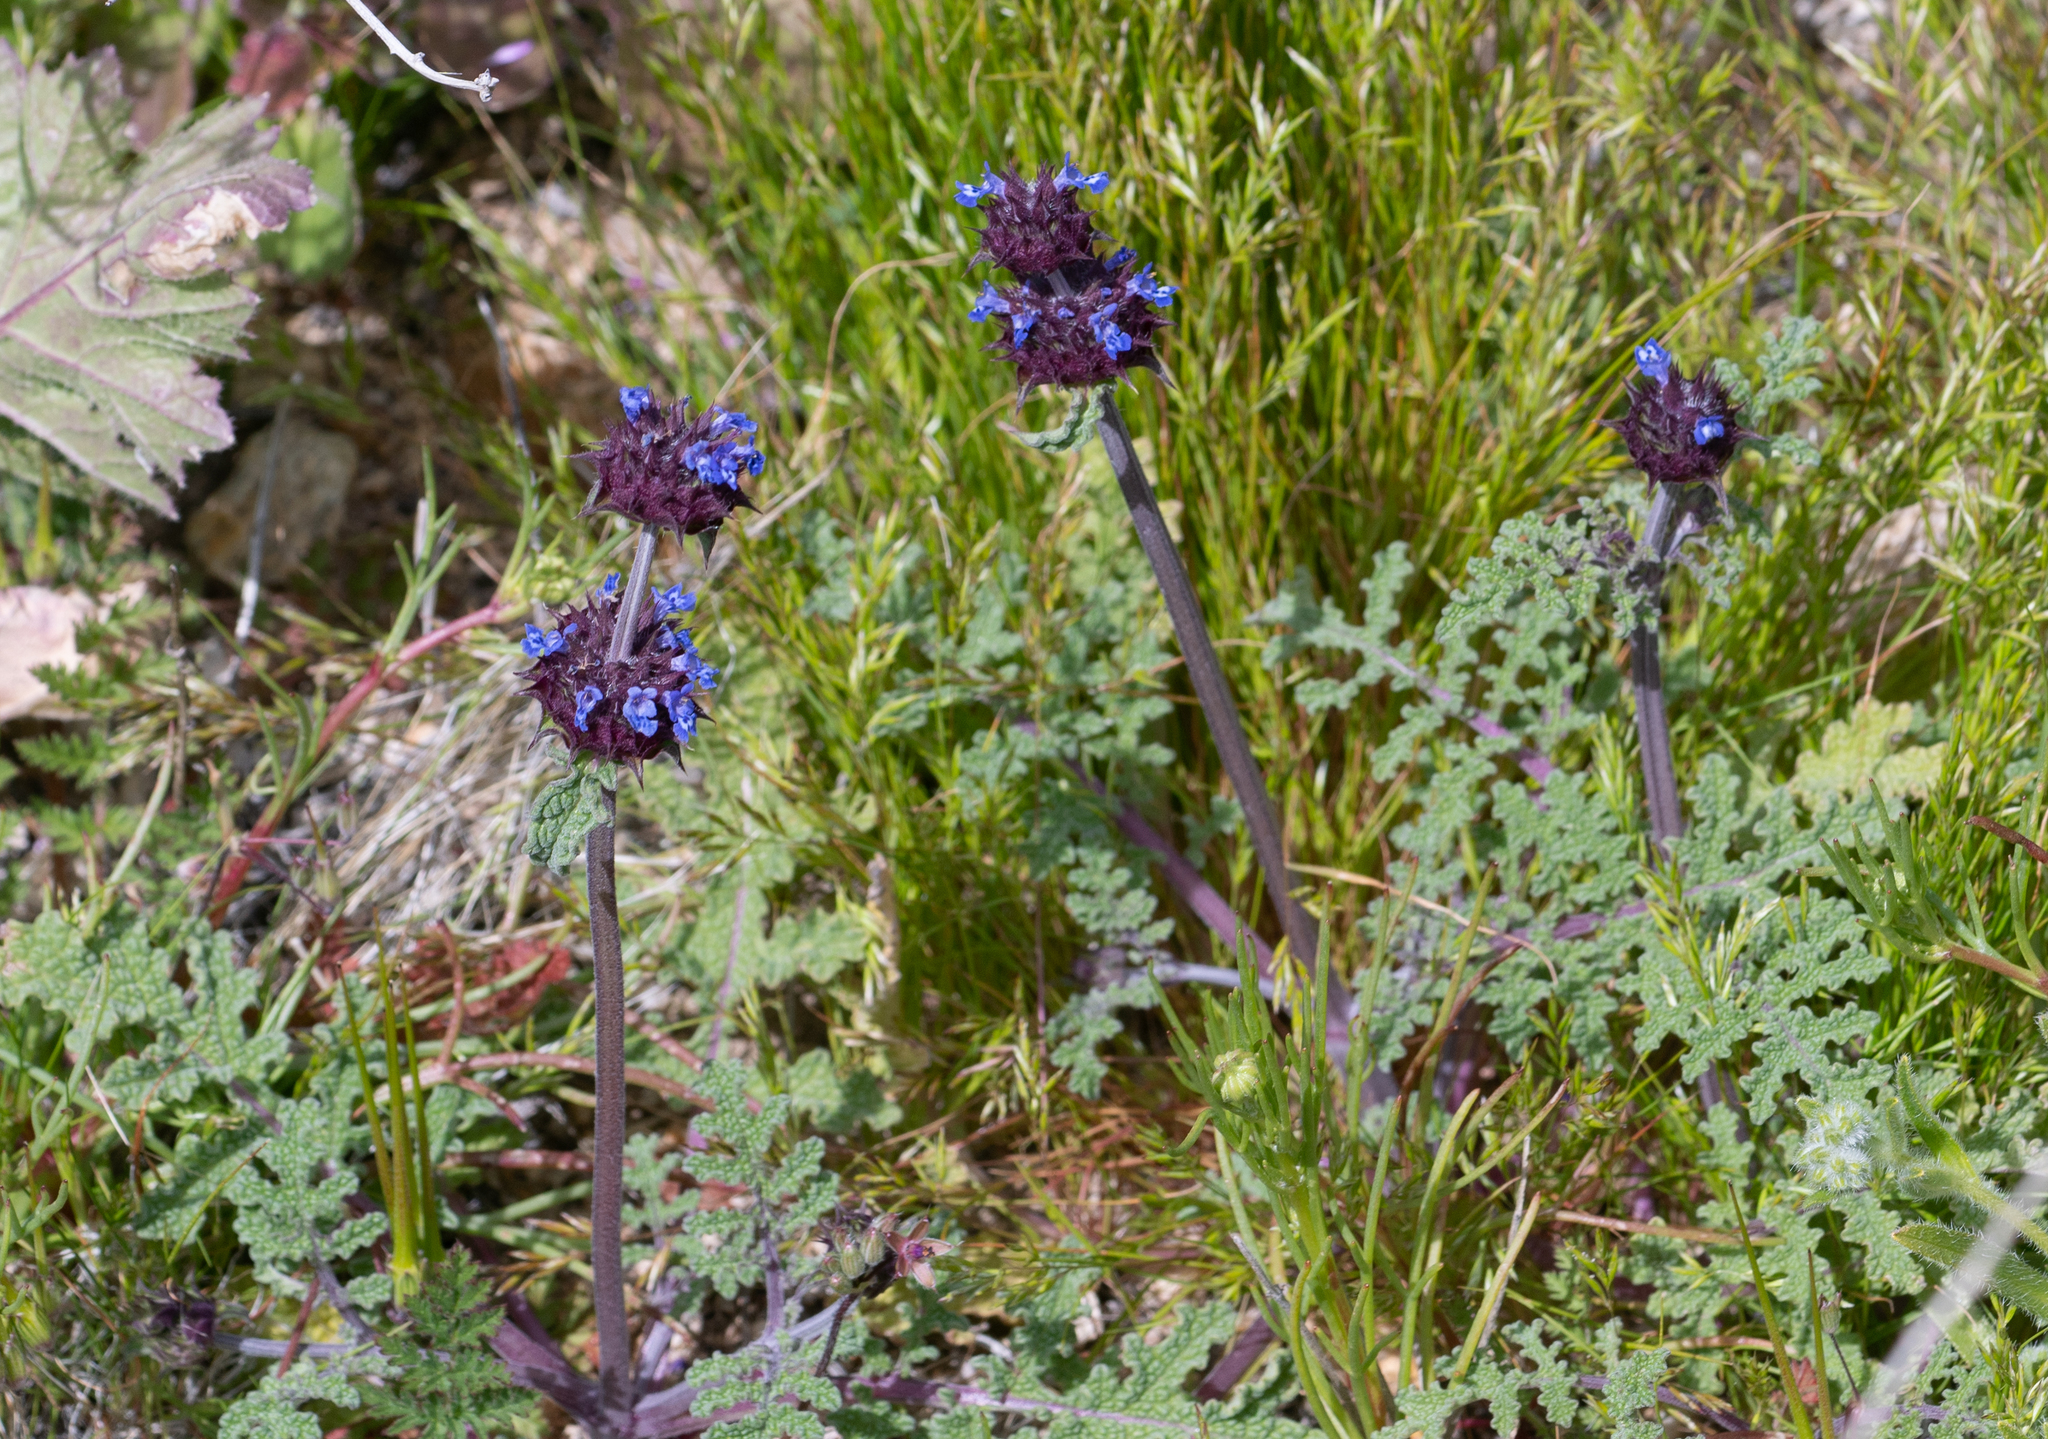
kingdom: Plantae
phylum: Tracheophyta
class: Magnoliopsida
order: Lamiales
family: Lamiaceae
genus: Salvia
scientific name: Salvia columbariae
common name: Chia
